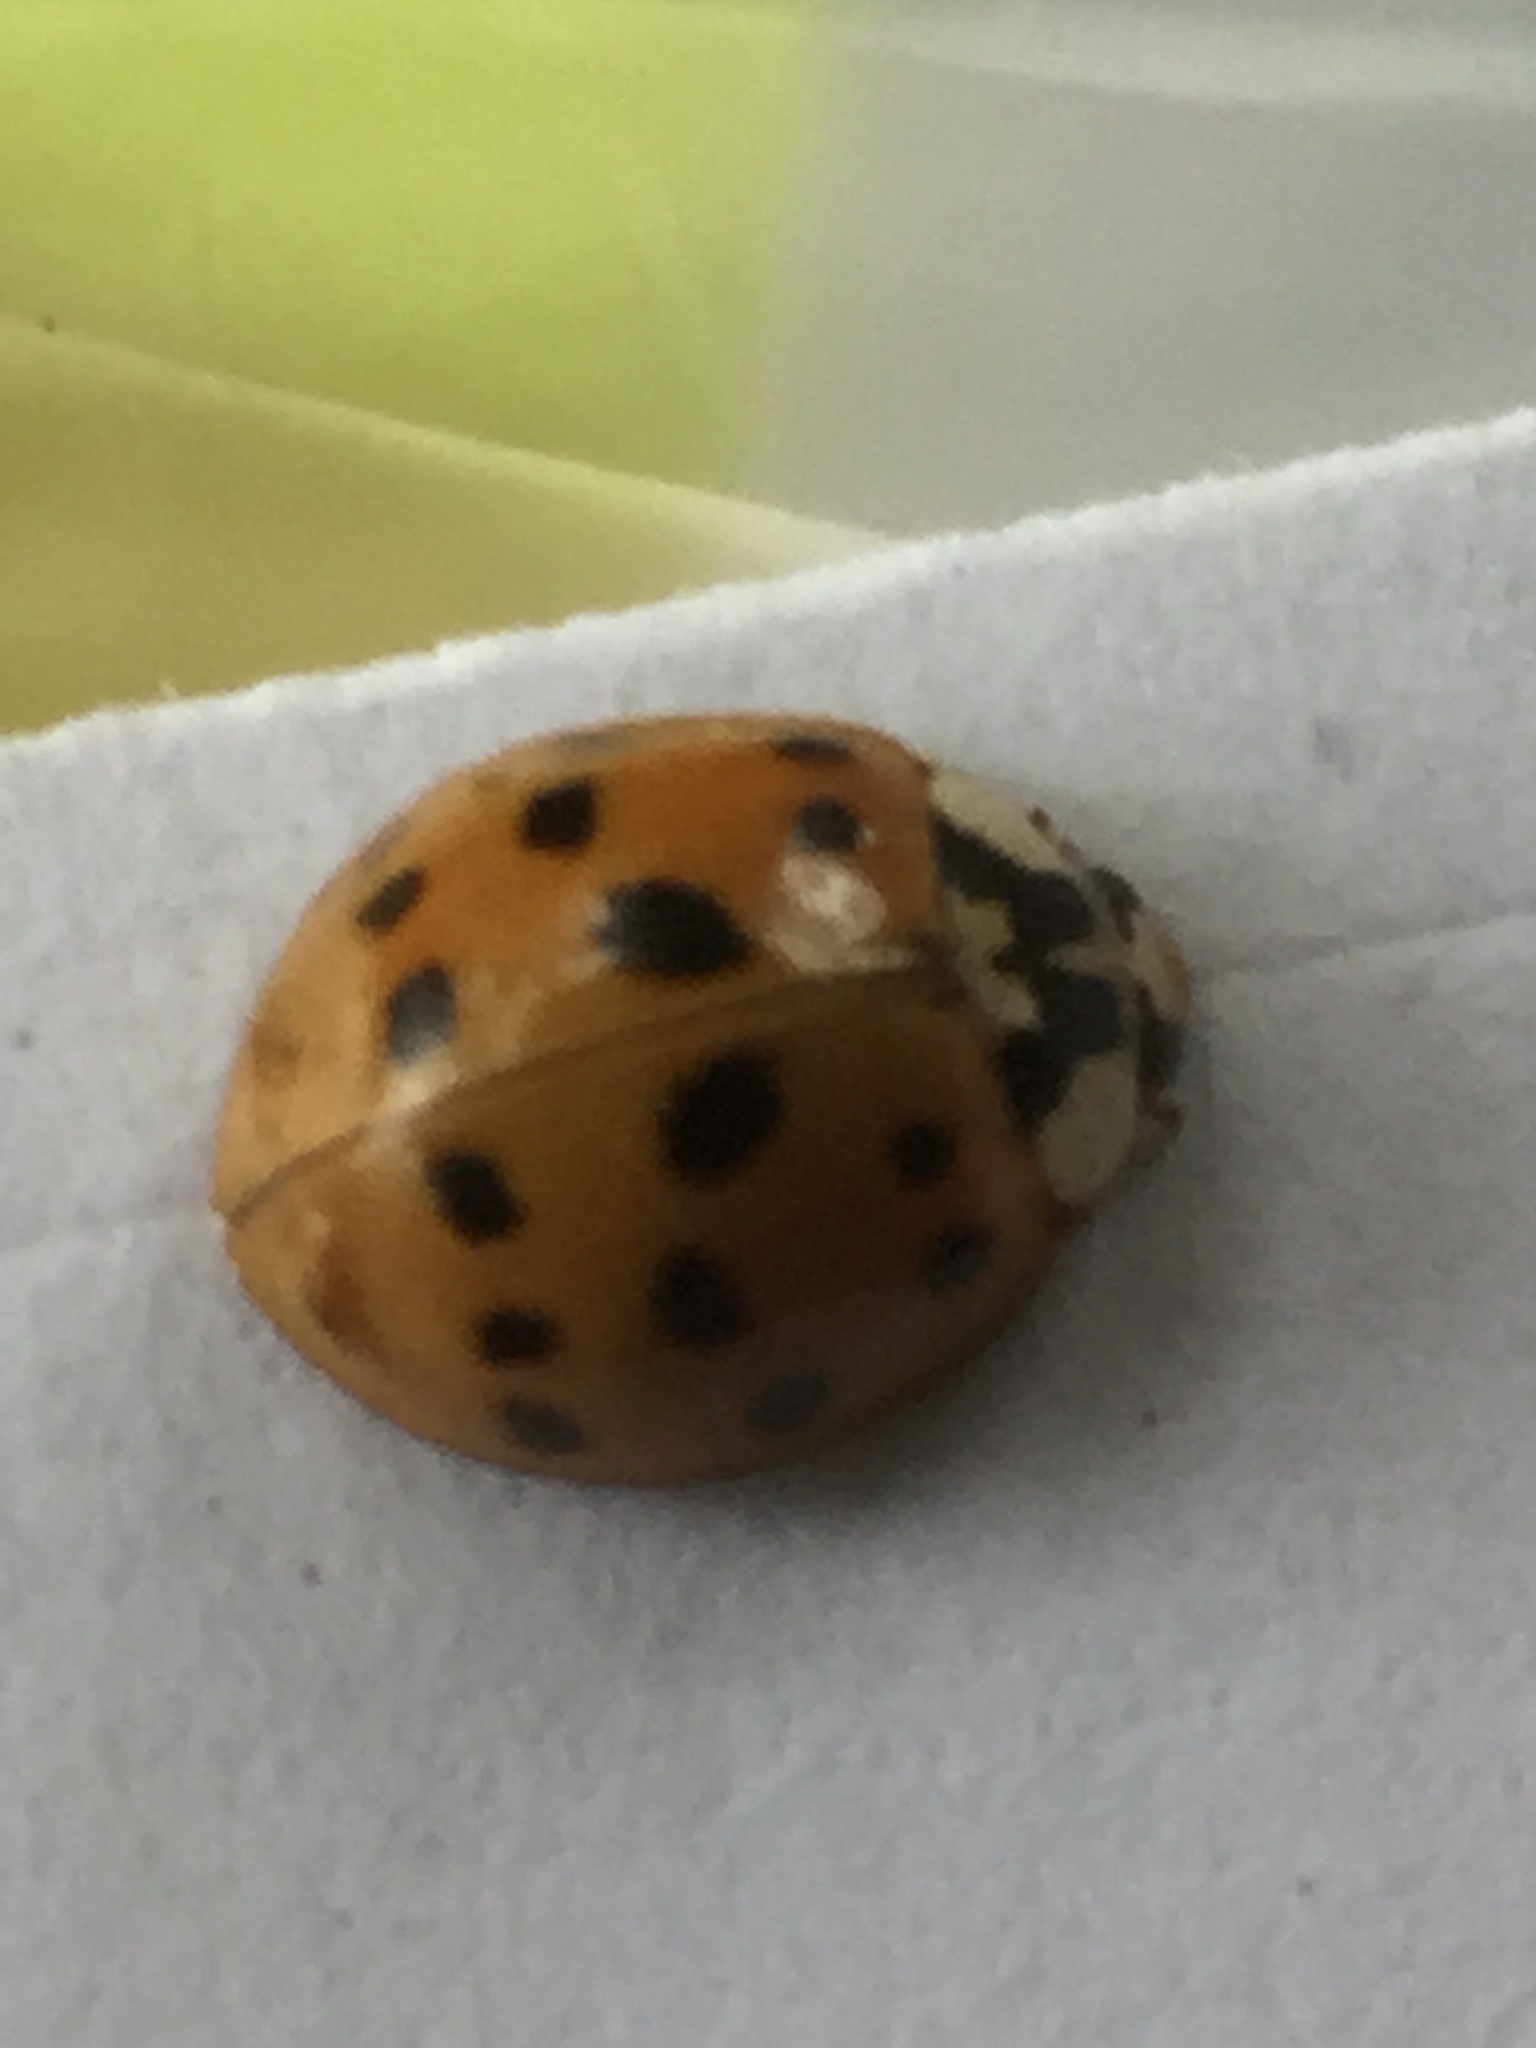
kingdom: Animalia
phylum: Arthropoda
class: Insecta
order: Coleoptera
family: Coccinellidae
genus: Harmonia
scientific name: Harmonia axyridis
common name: Harlequin ladybird
